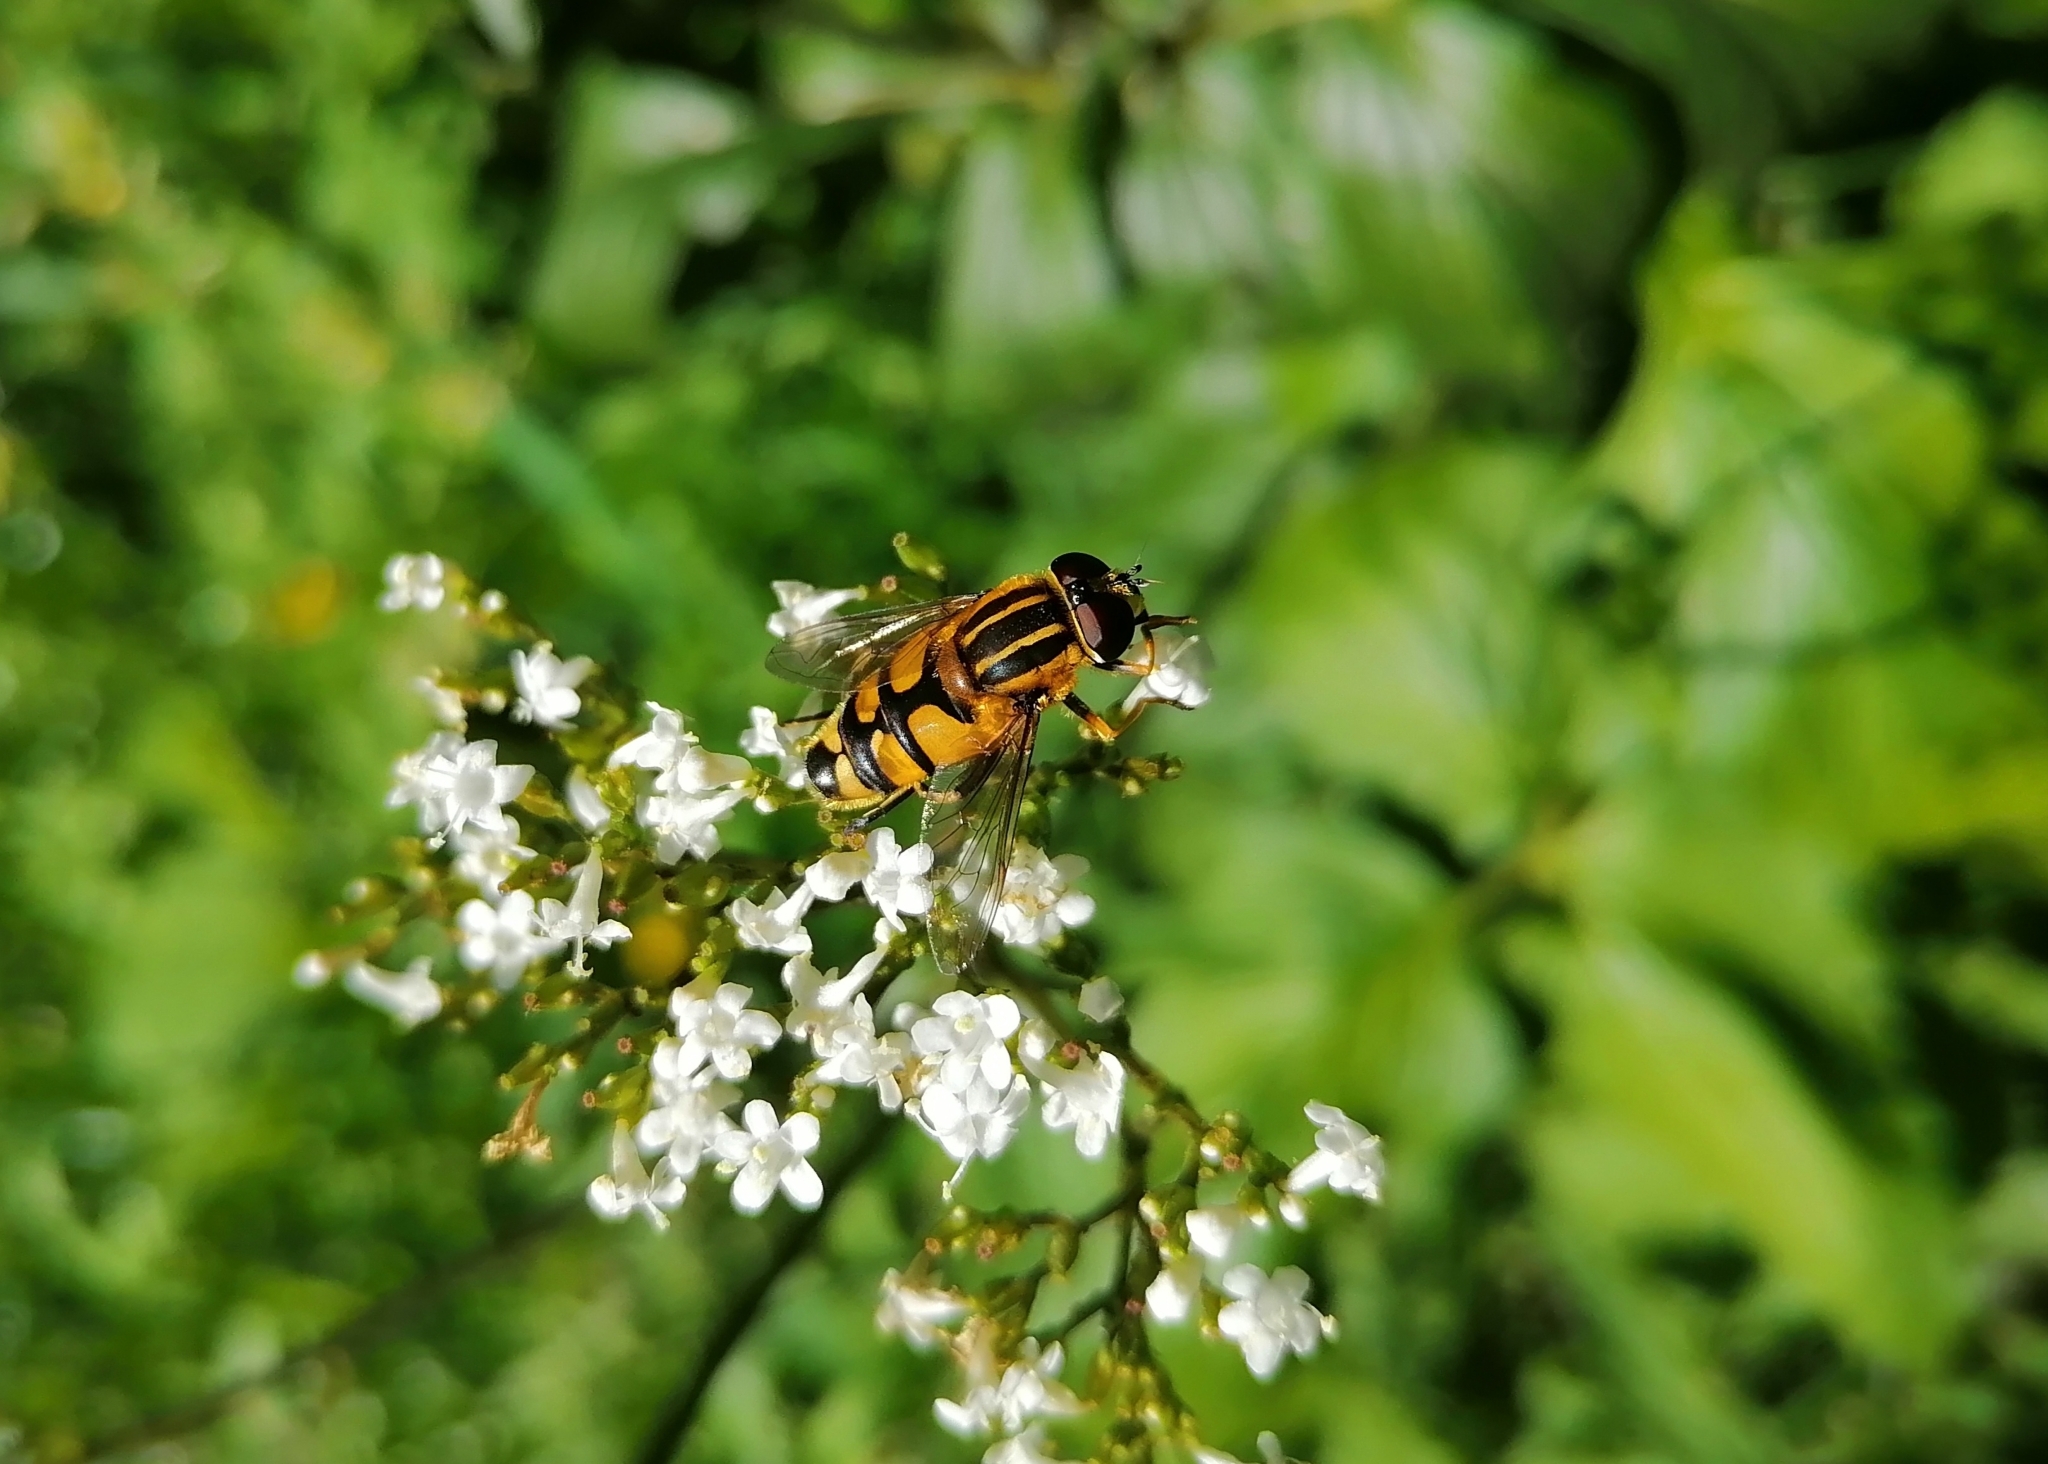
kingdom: Animalia
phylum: Arthropoda
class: Insecta
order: Diptera
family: Syrphidae
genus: Helophilus
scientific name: Helophilus affinis
